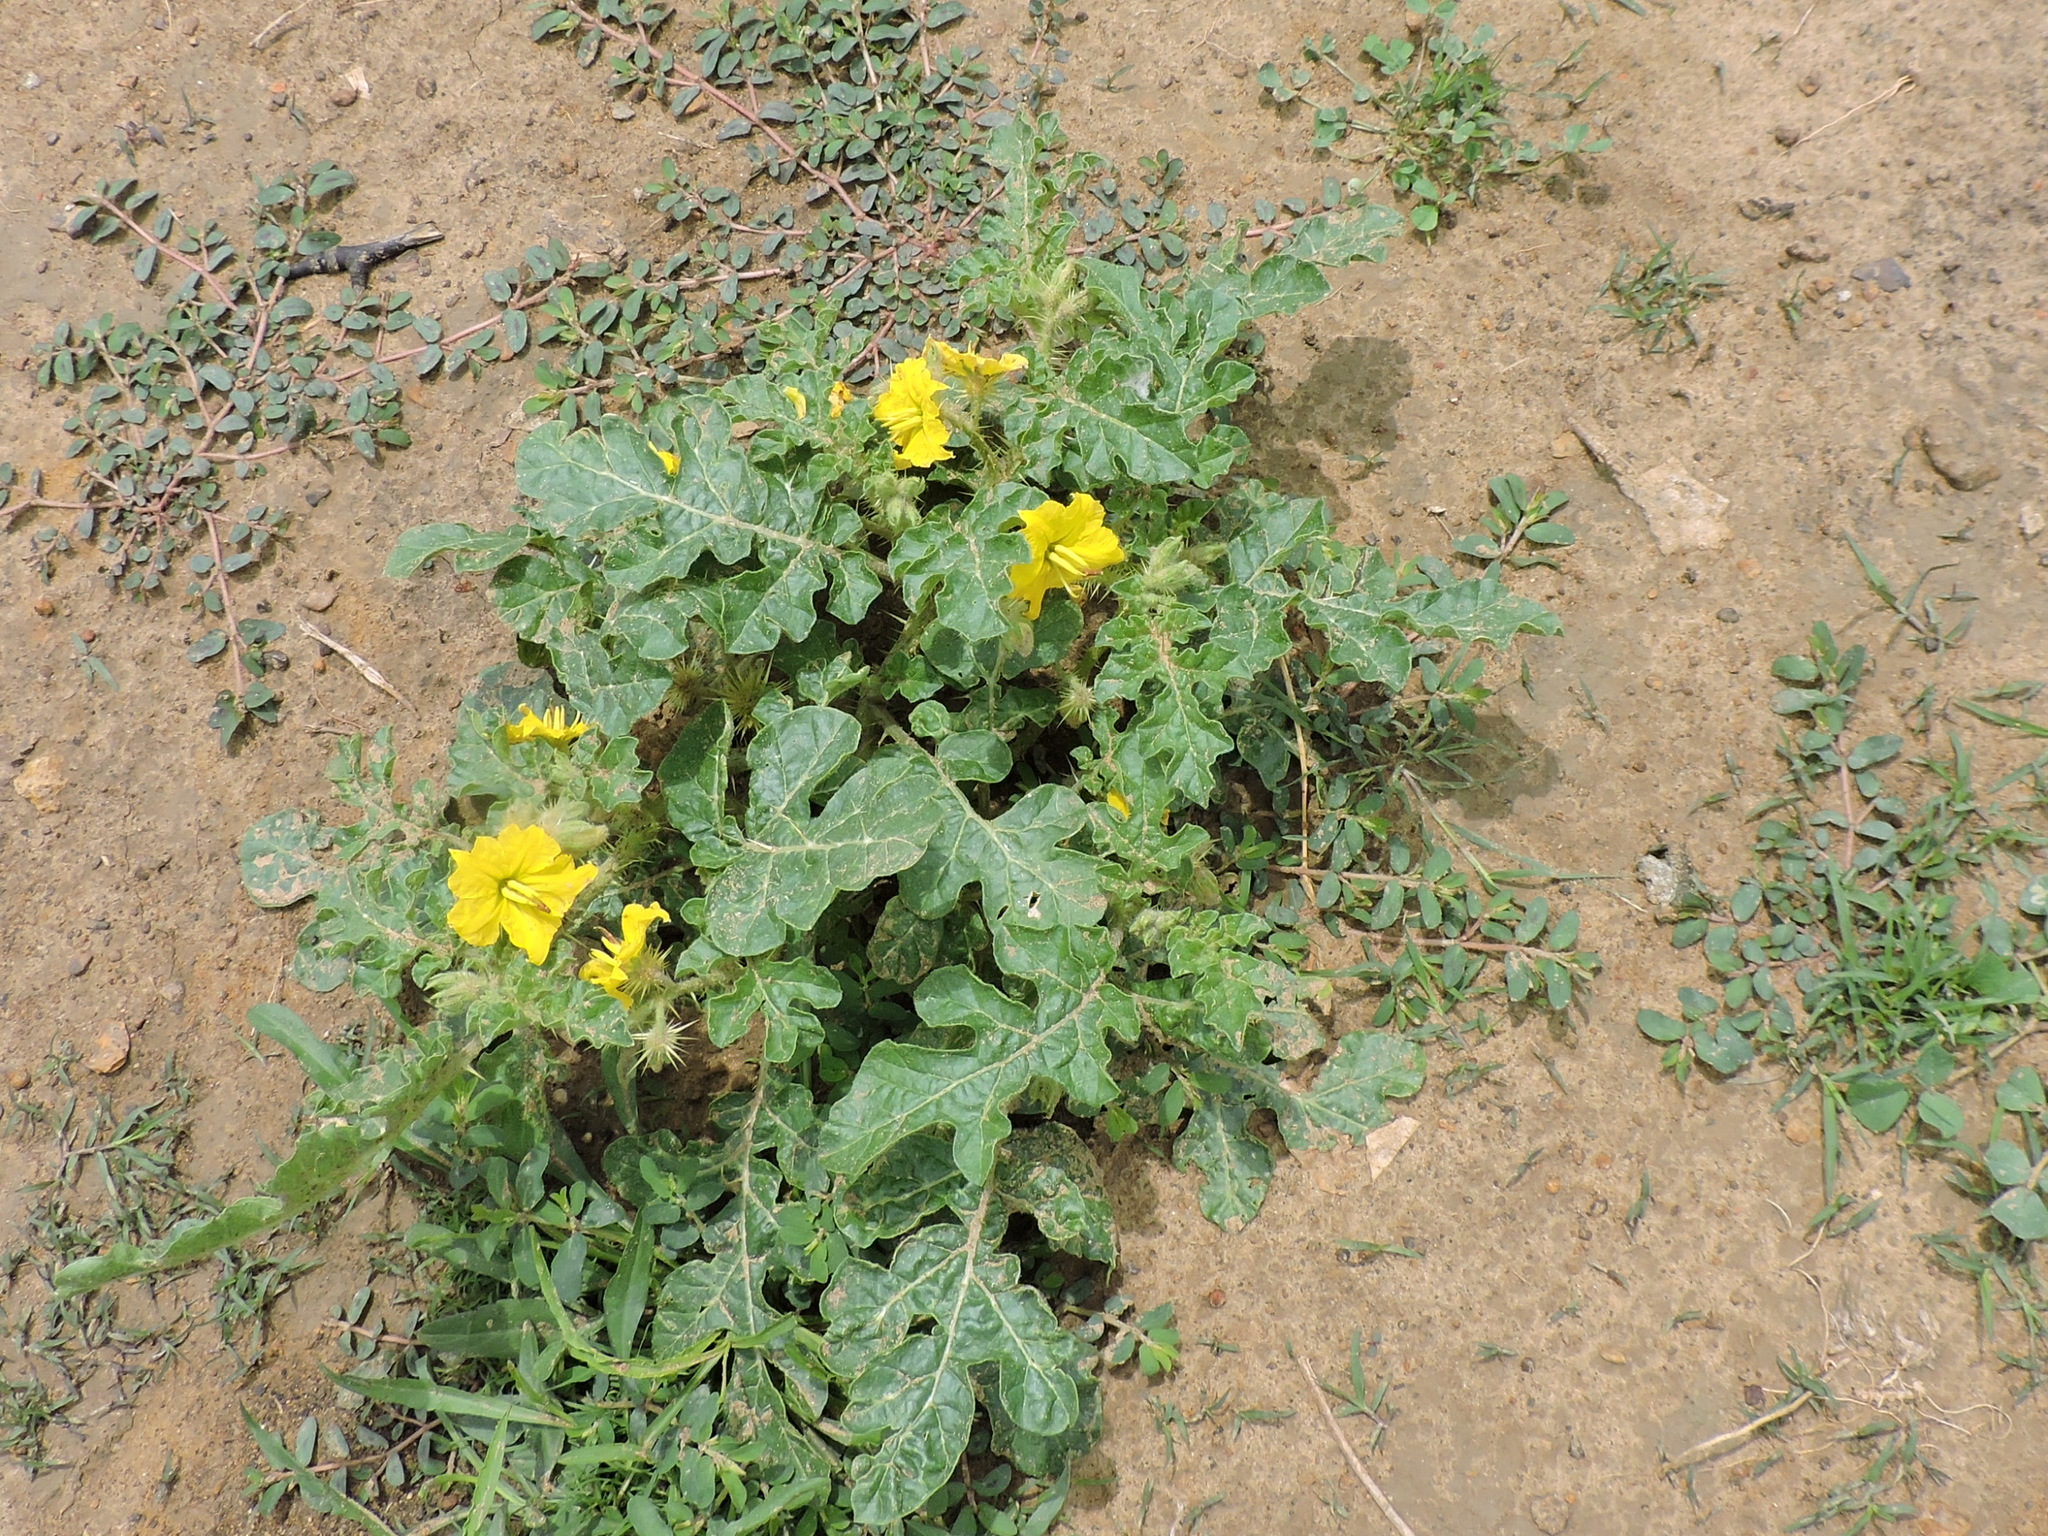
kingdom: Plantae
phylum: Tracheophyta
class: Magnoliopsida
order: Solanales
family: Solanaceae
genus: Solanum
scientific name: Solanum angustifolium
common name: Buffalobur nightshade
